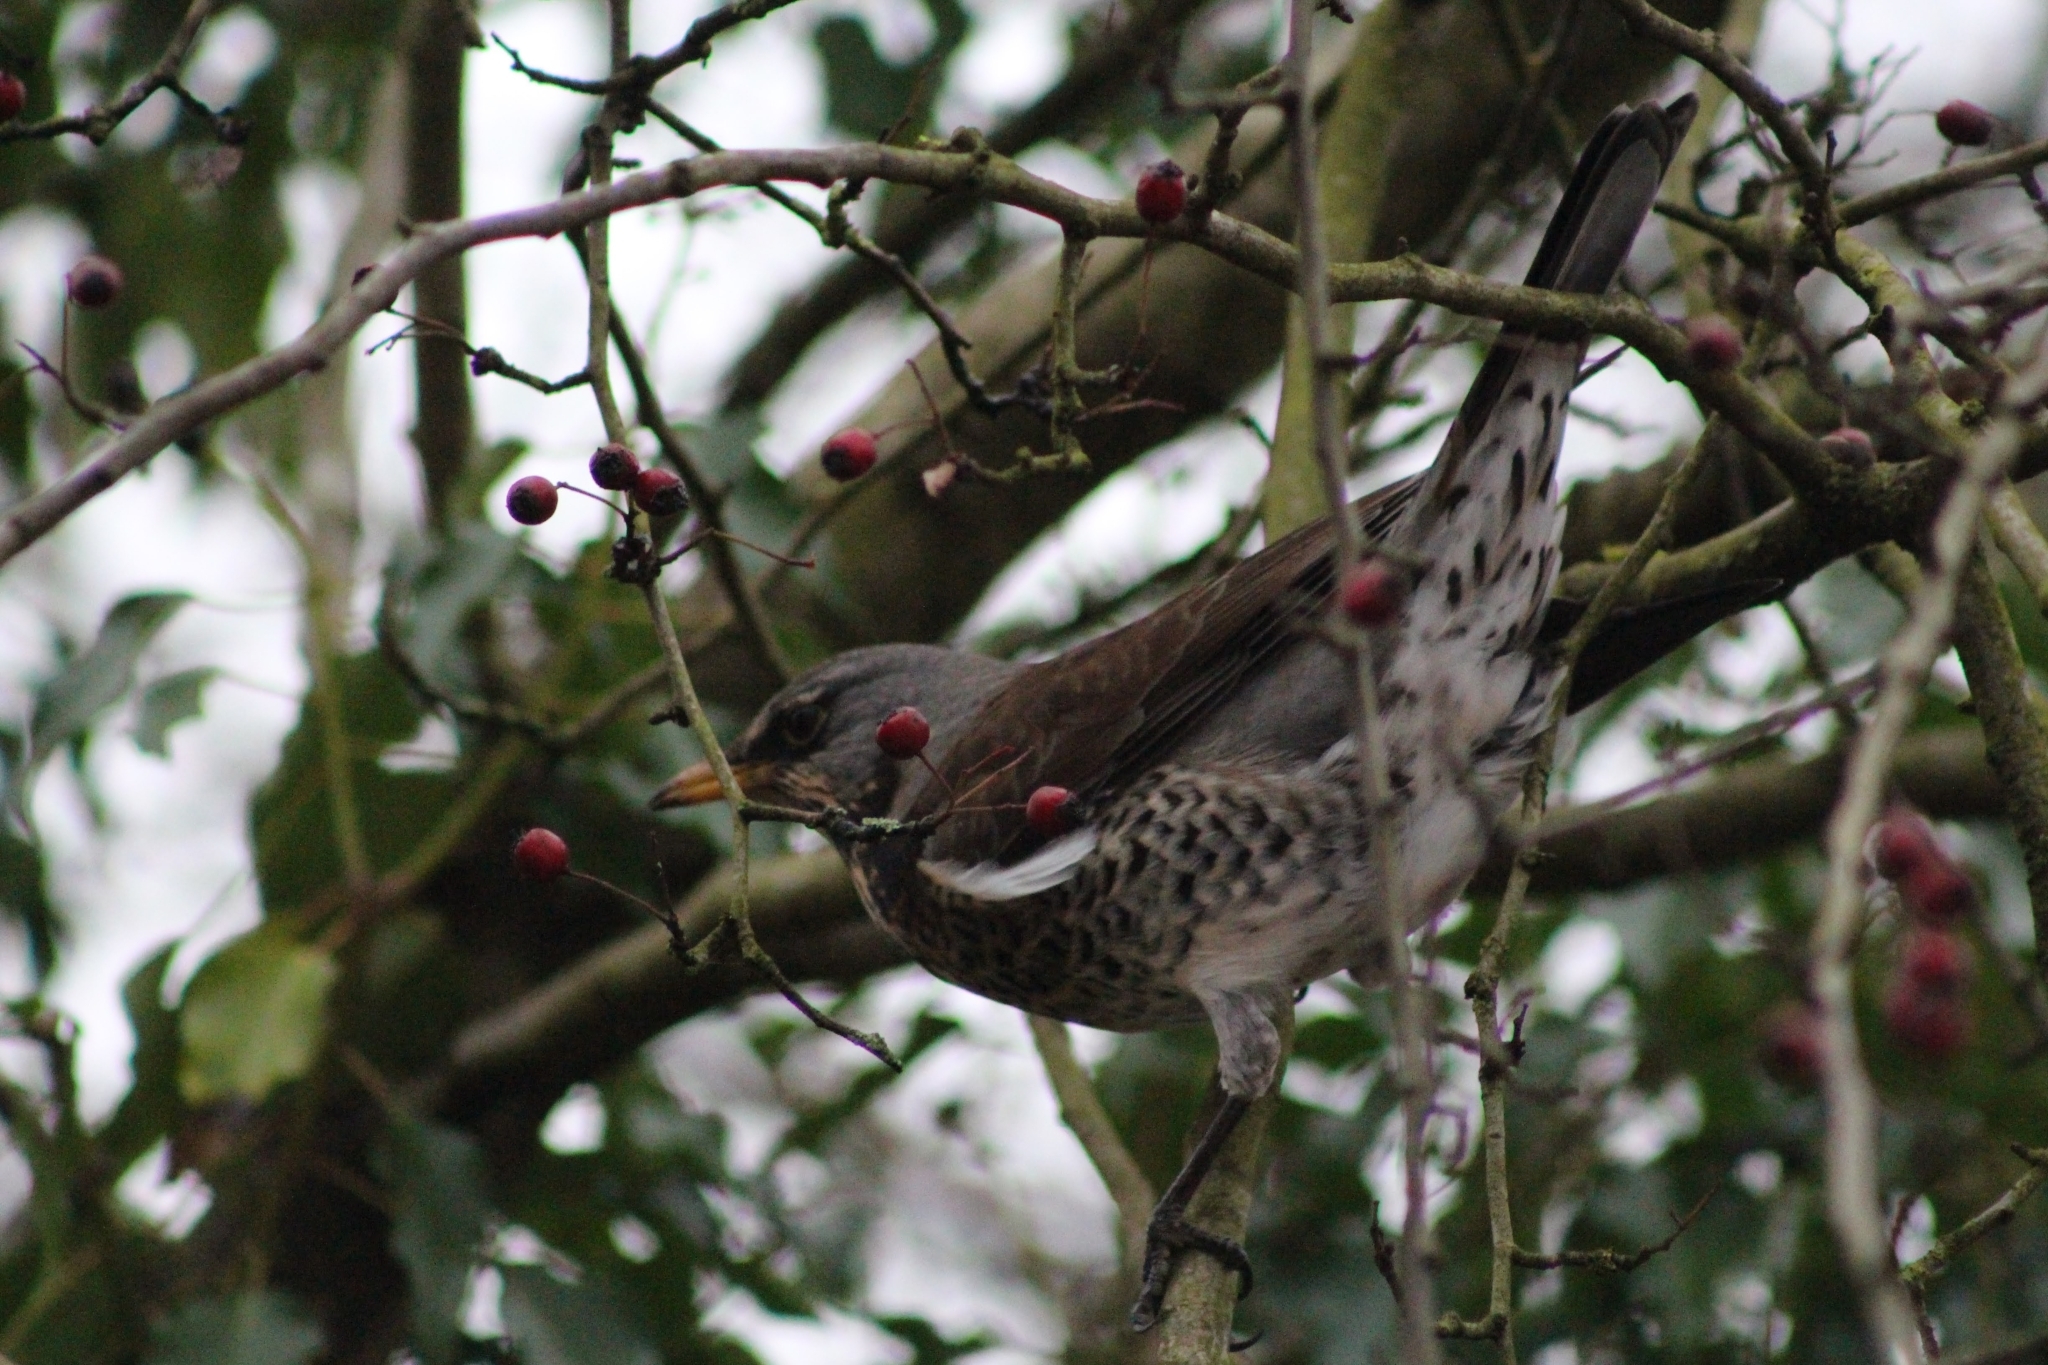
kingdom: Animalia
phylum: Chordata
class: Aves
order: Passeriformes
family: Turdidae
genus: Turdus
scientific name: Turdus pilaris
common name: Fieldfare
